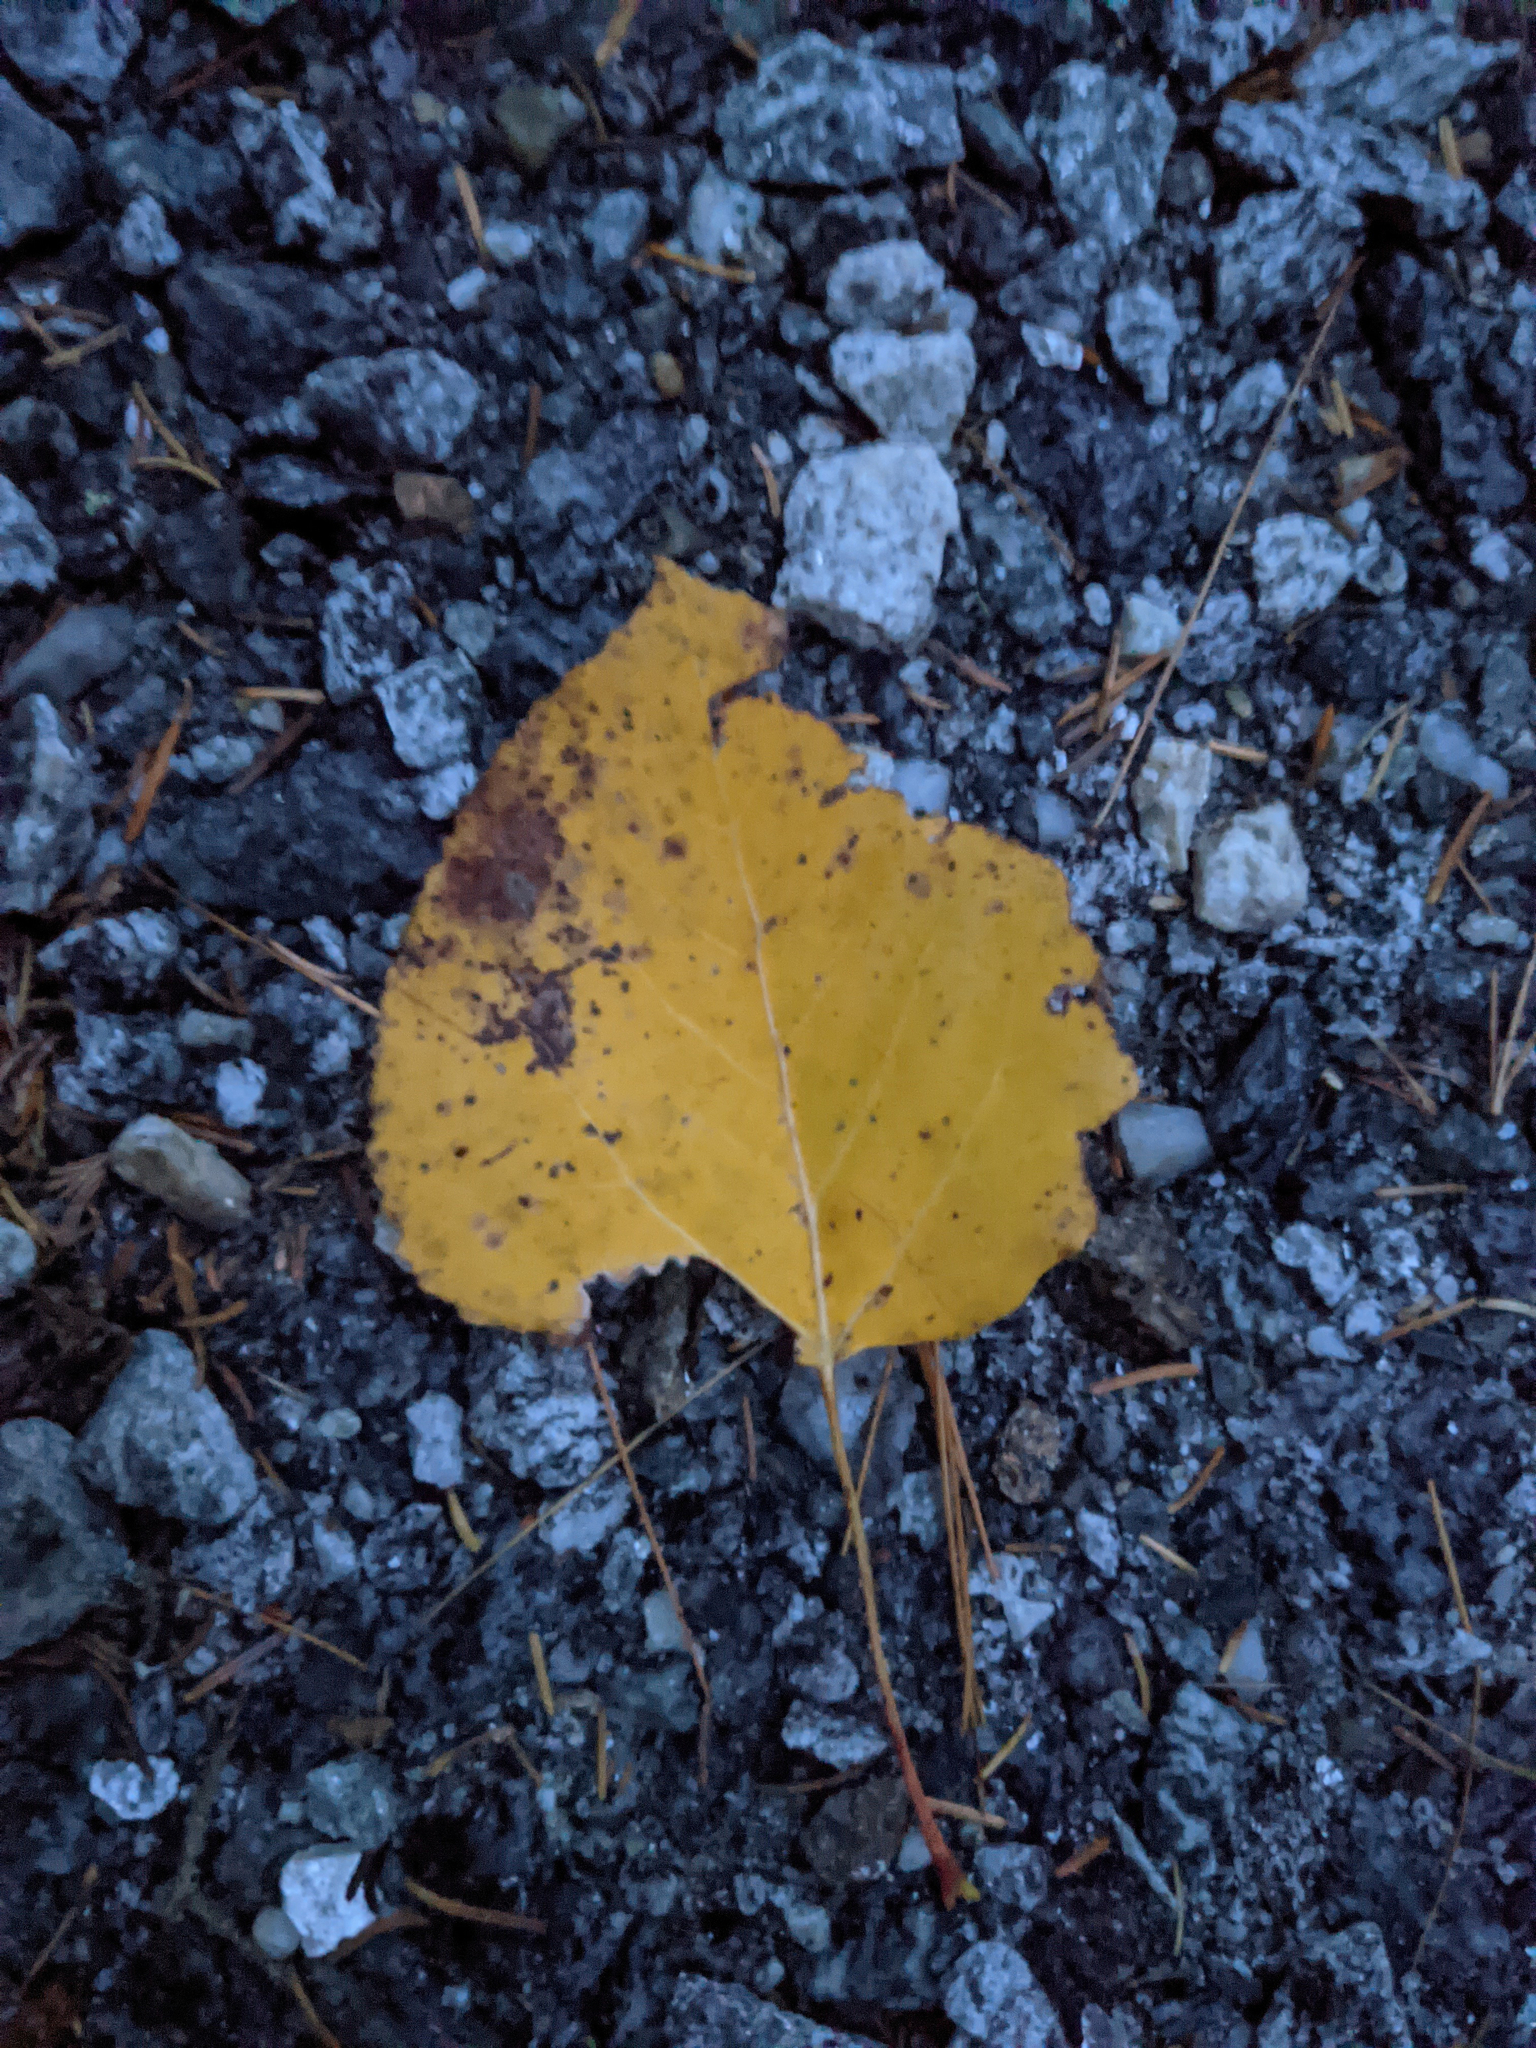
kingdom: Plantae
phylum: Tracheophyta
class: Magnoliopsida
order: Malpighiales
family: Salicaceae
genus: Populus
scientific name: Populus tremuloides
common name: Quaking aspen
